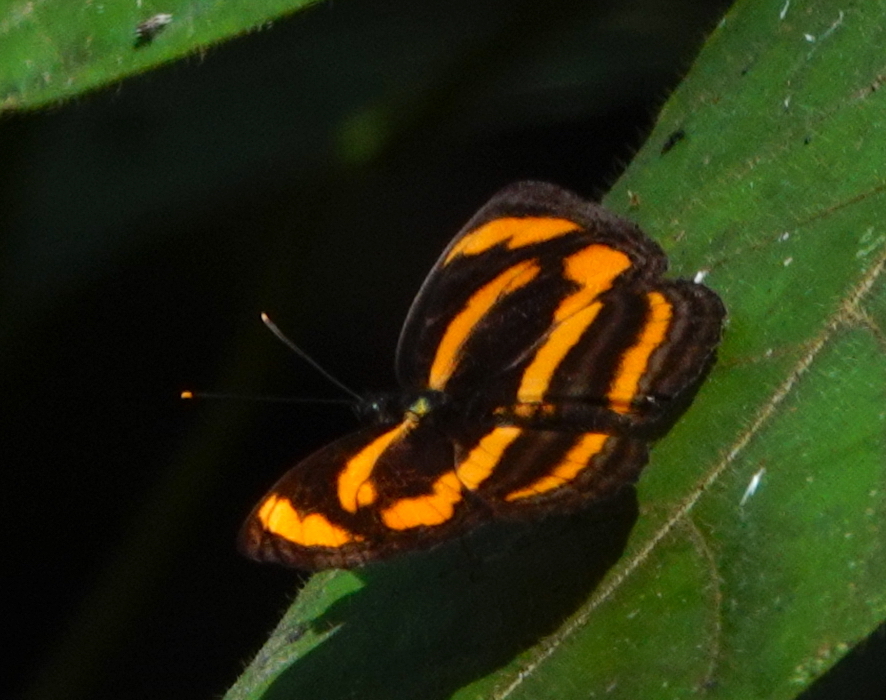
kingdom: Animalia
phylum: Arthropoda
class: Insecta
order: Lepidoptera
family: Nymphalidae
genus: Pantoporia
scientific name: Pantoporia mysia
